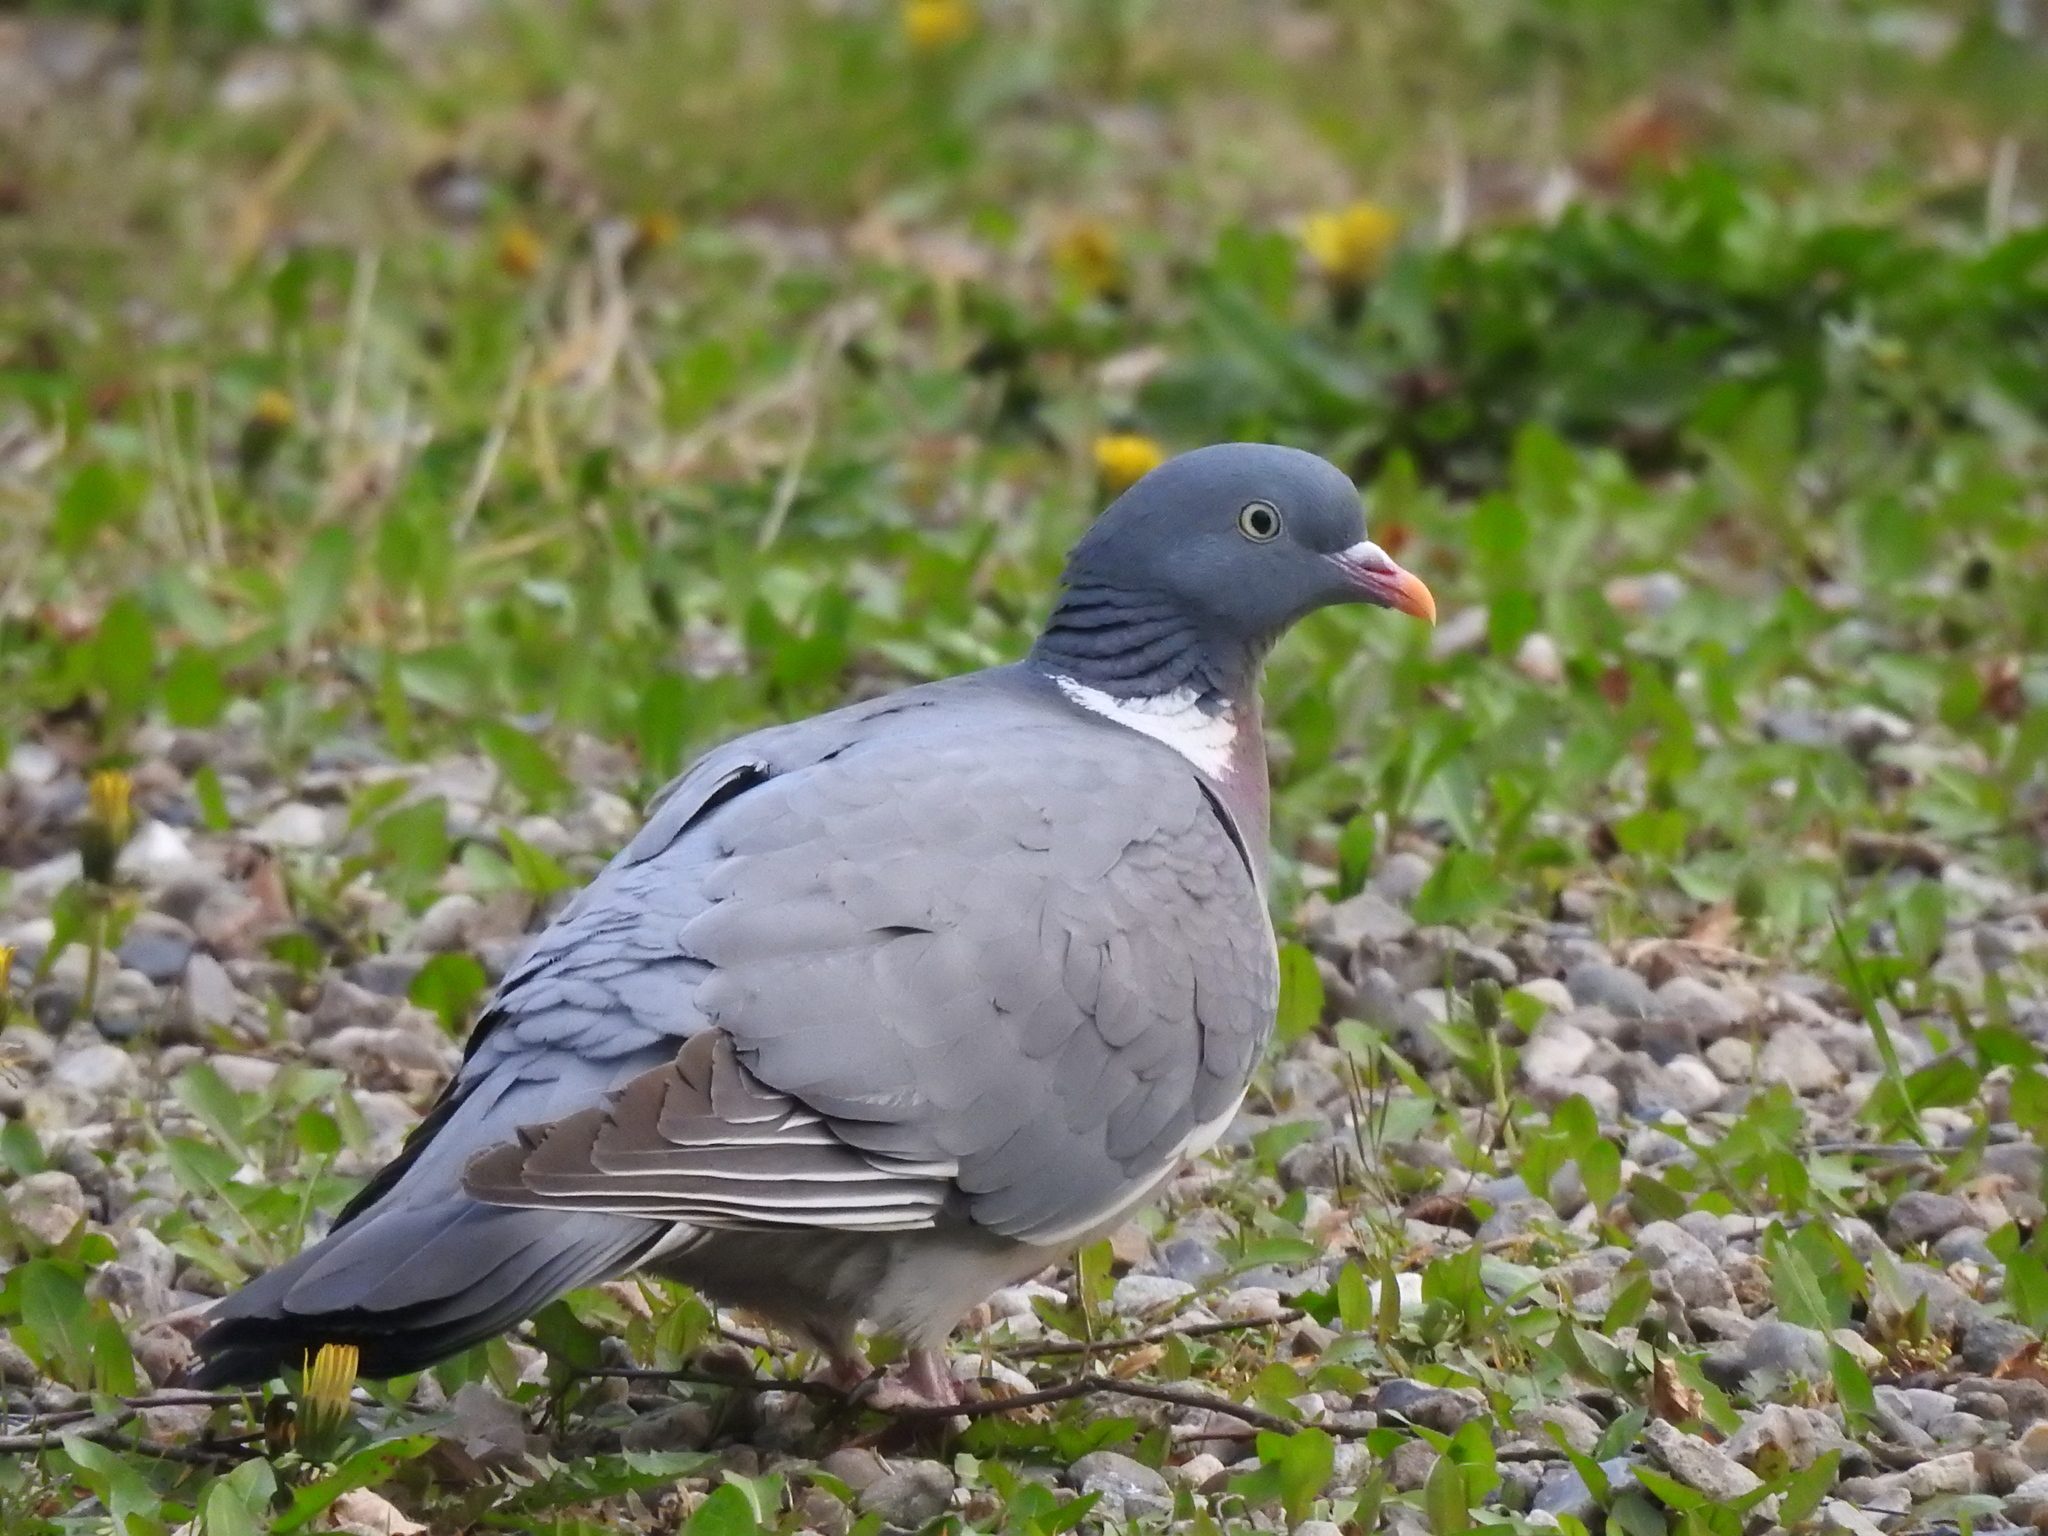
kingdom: Animalia
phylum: Chordata
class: Aves
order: Columbiformes
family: Columbidae
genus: Columba
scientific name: Columba palumbus
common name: Common wood pigeon
